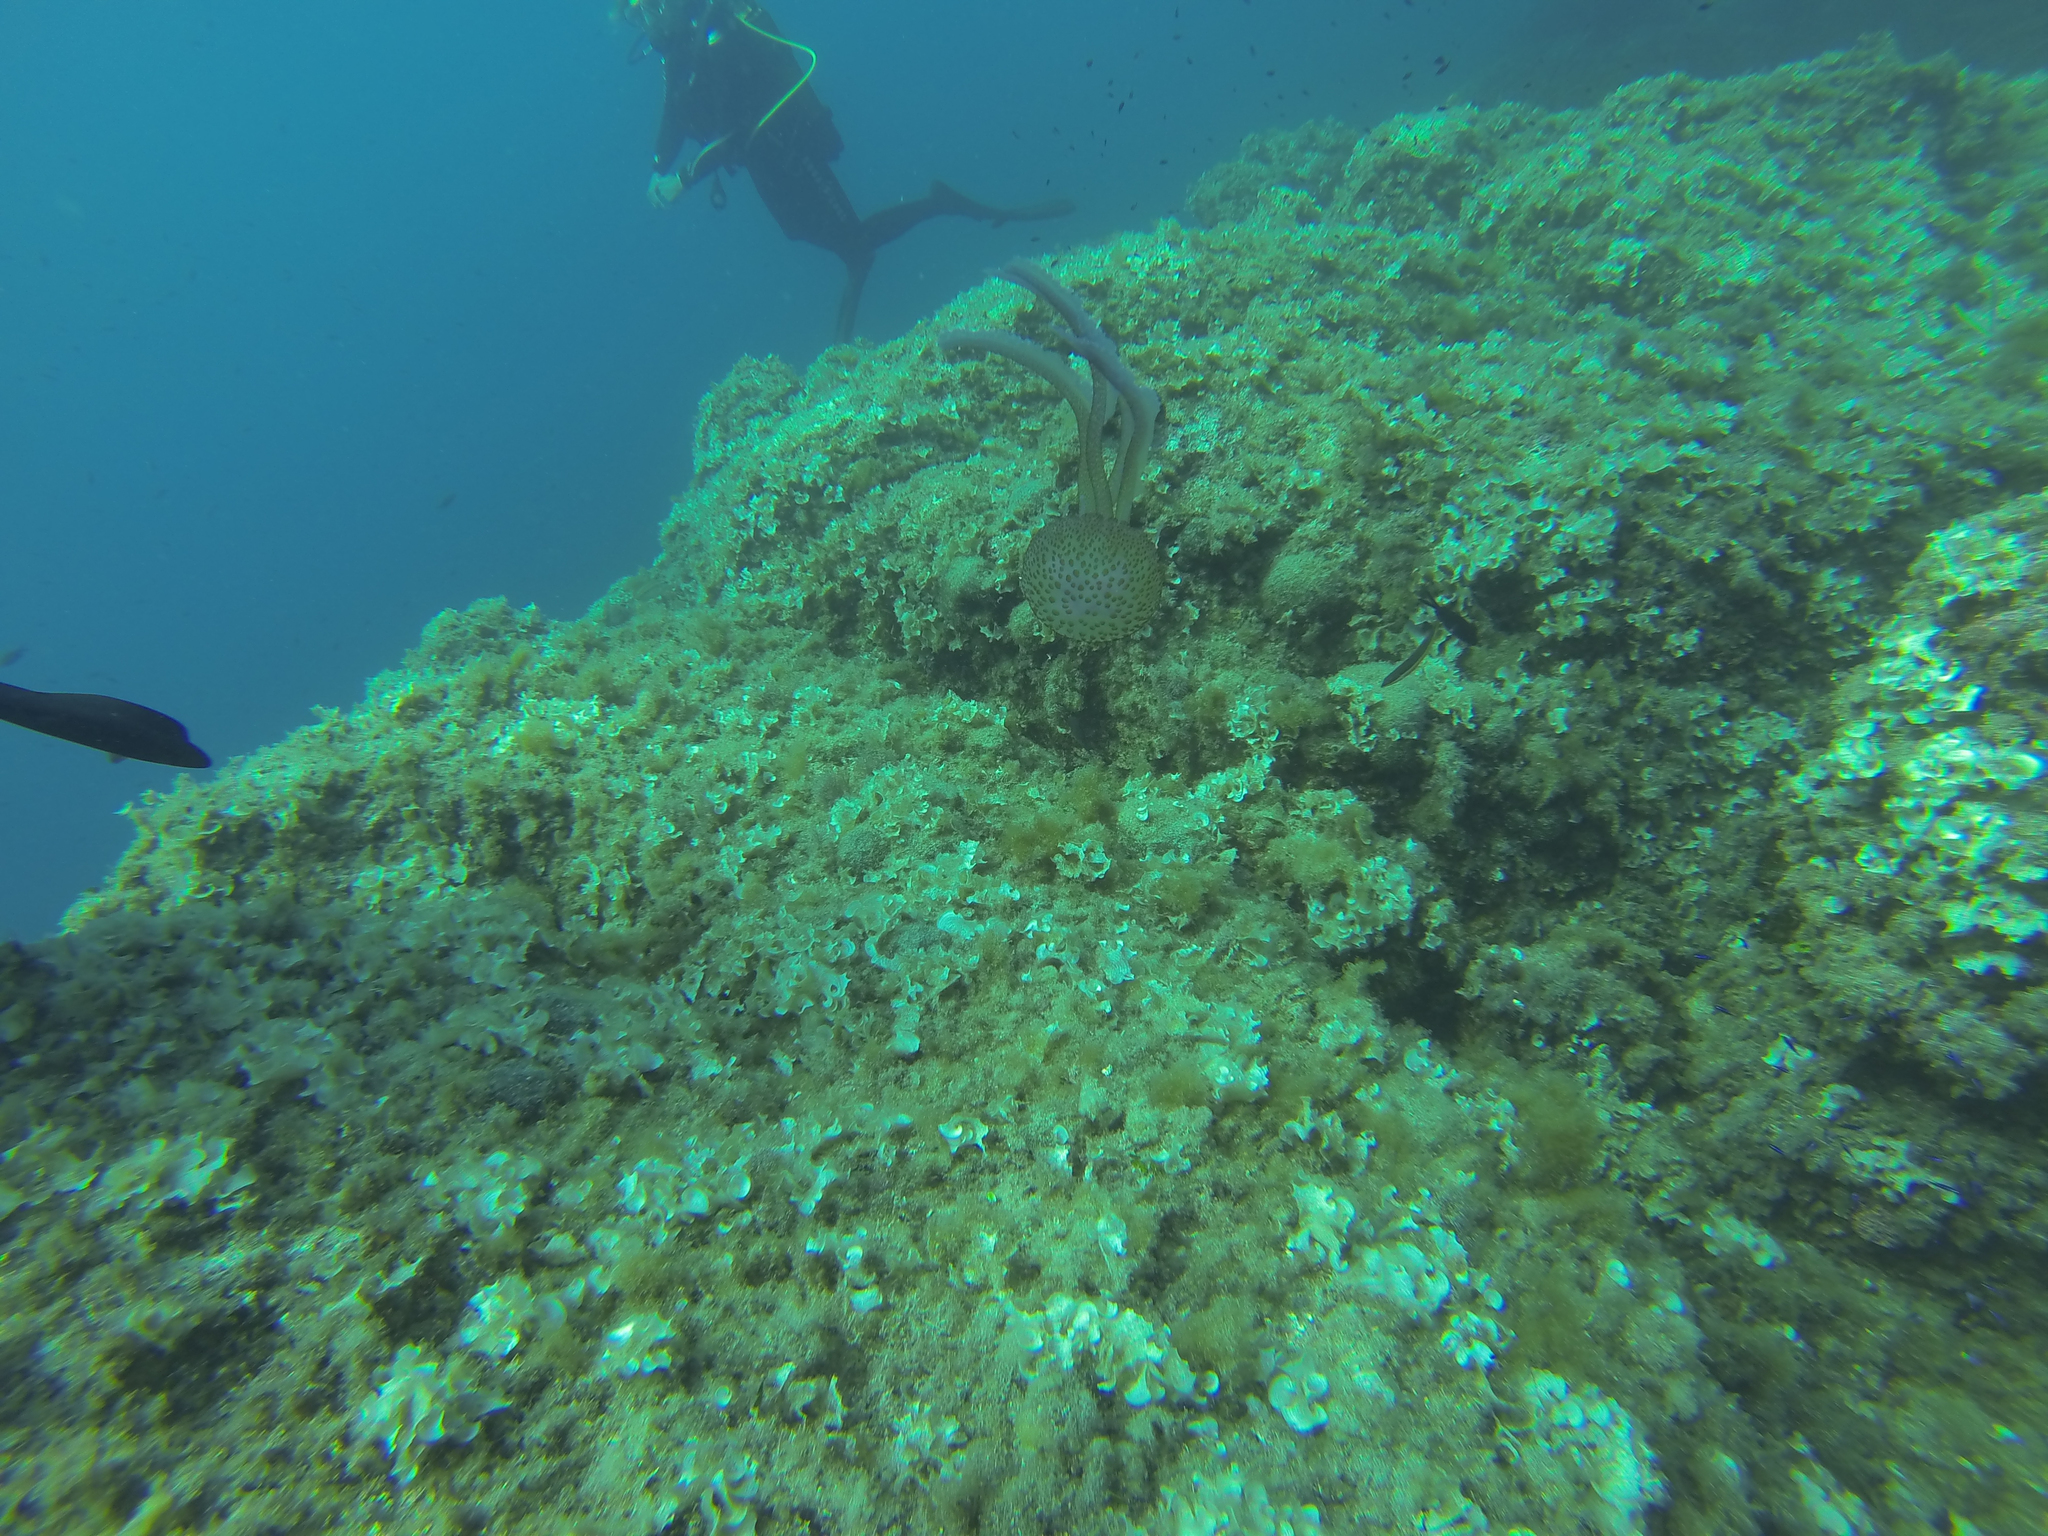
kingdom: Animalia
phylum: Cnidaria
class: Scyphozoa
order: Semaeostomeae
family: Pelagiidae
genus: Pelagia
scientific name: Pelagia noctiluca
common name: Mauve stinger
